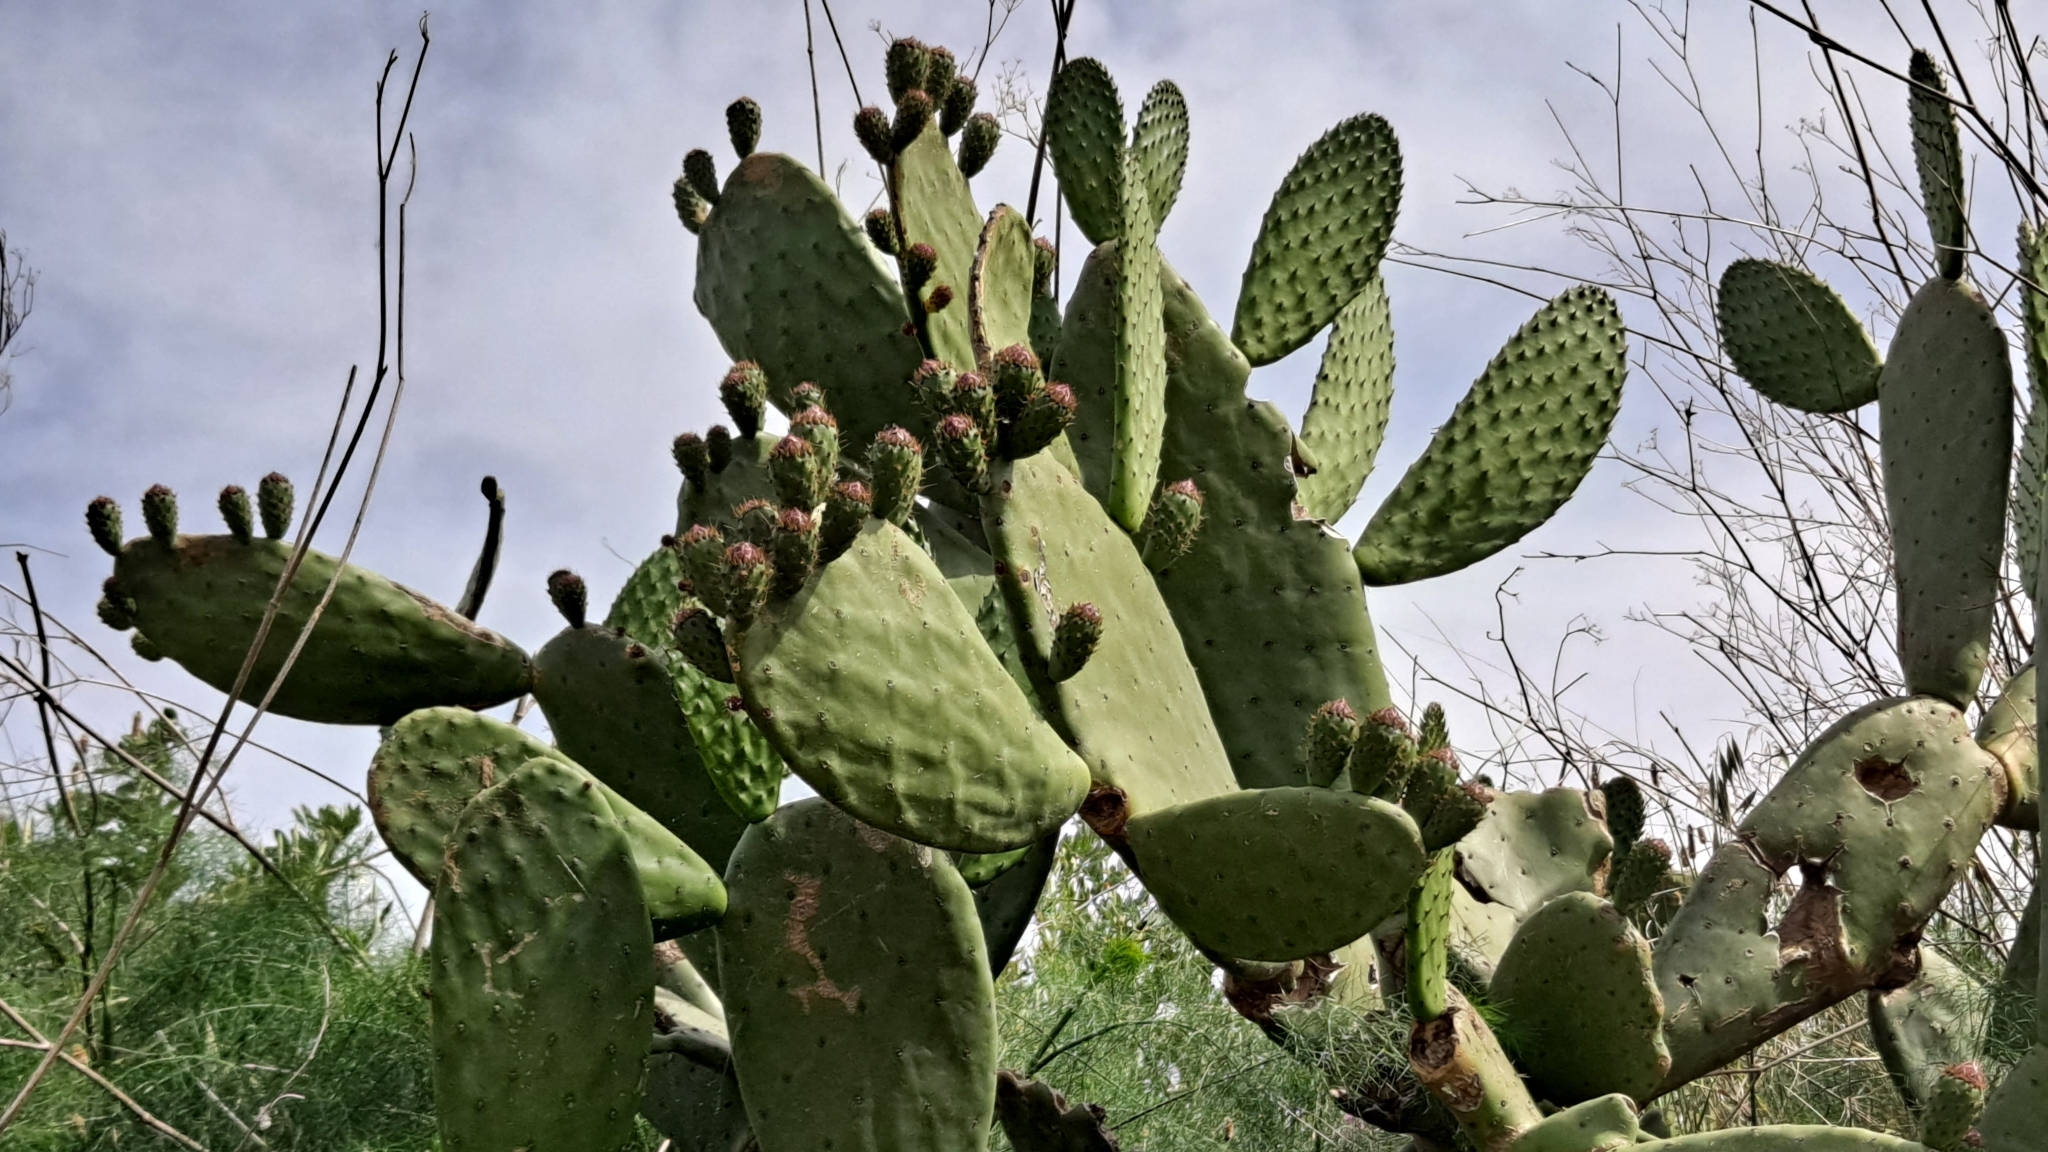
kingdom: Plantae
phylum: Tracheophyta
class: Magnoliopsida
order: Caryophyllales
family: Cactaceae
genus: Opuntia
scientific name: Opuntia ficus-indica
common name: Barbary fig
